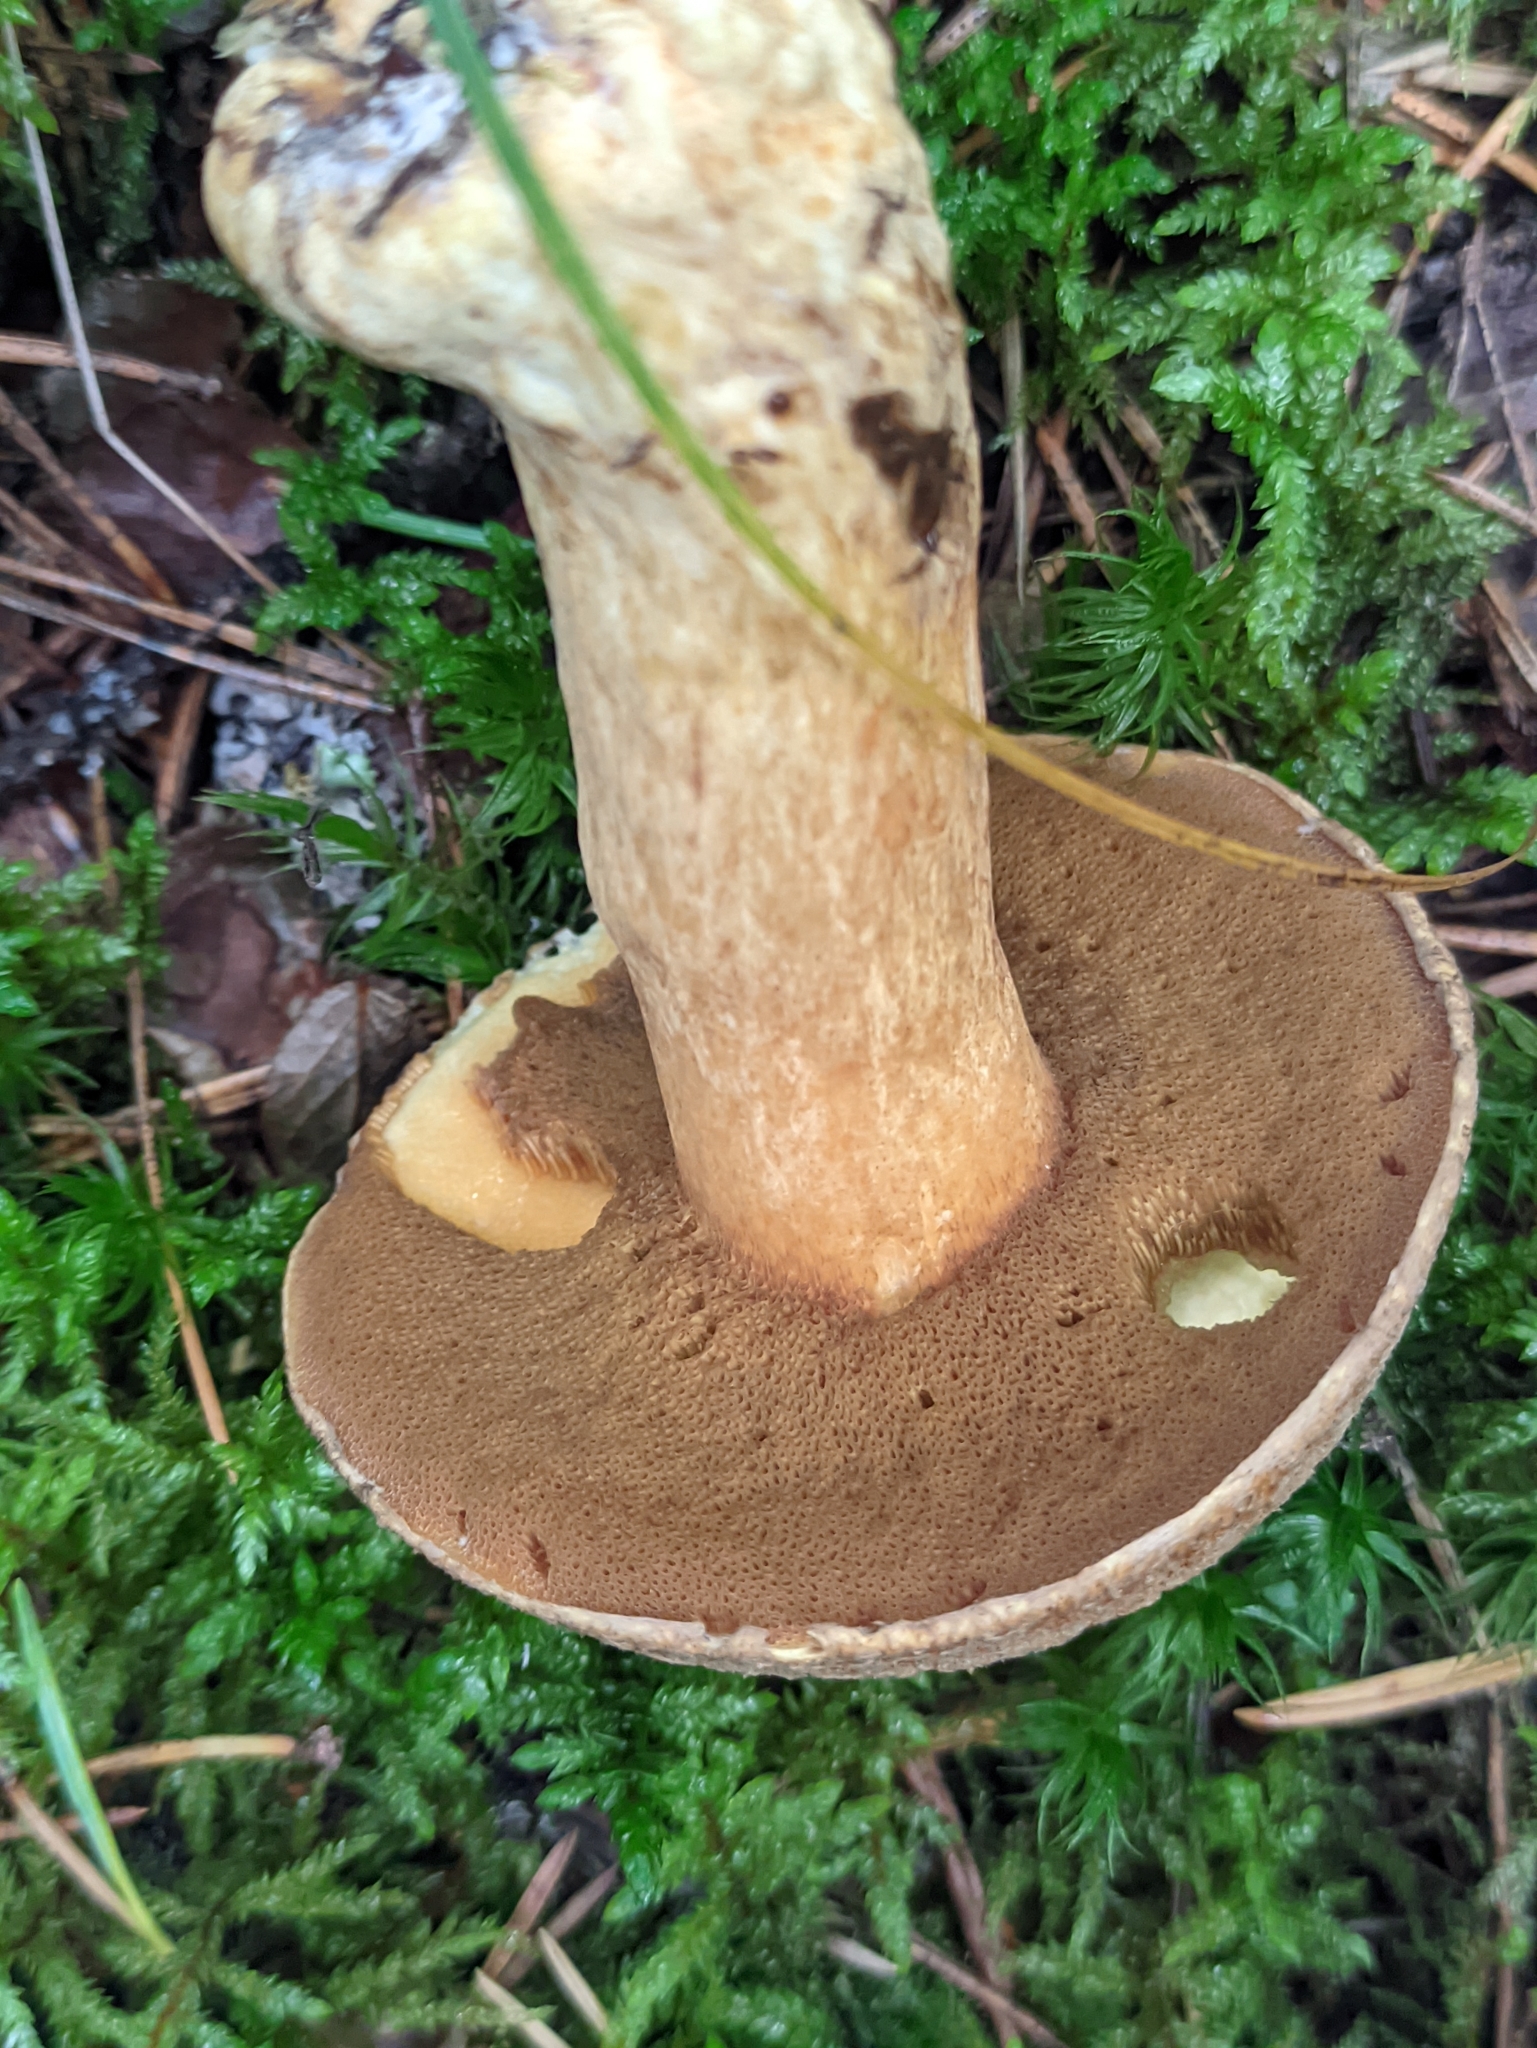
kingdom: Fungi
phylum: Basidiomycota
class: Agaricomycetes
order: Boletales
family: Suillaceae
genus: Suillus
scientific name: Suillus variegatus
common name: Velvet bolete
